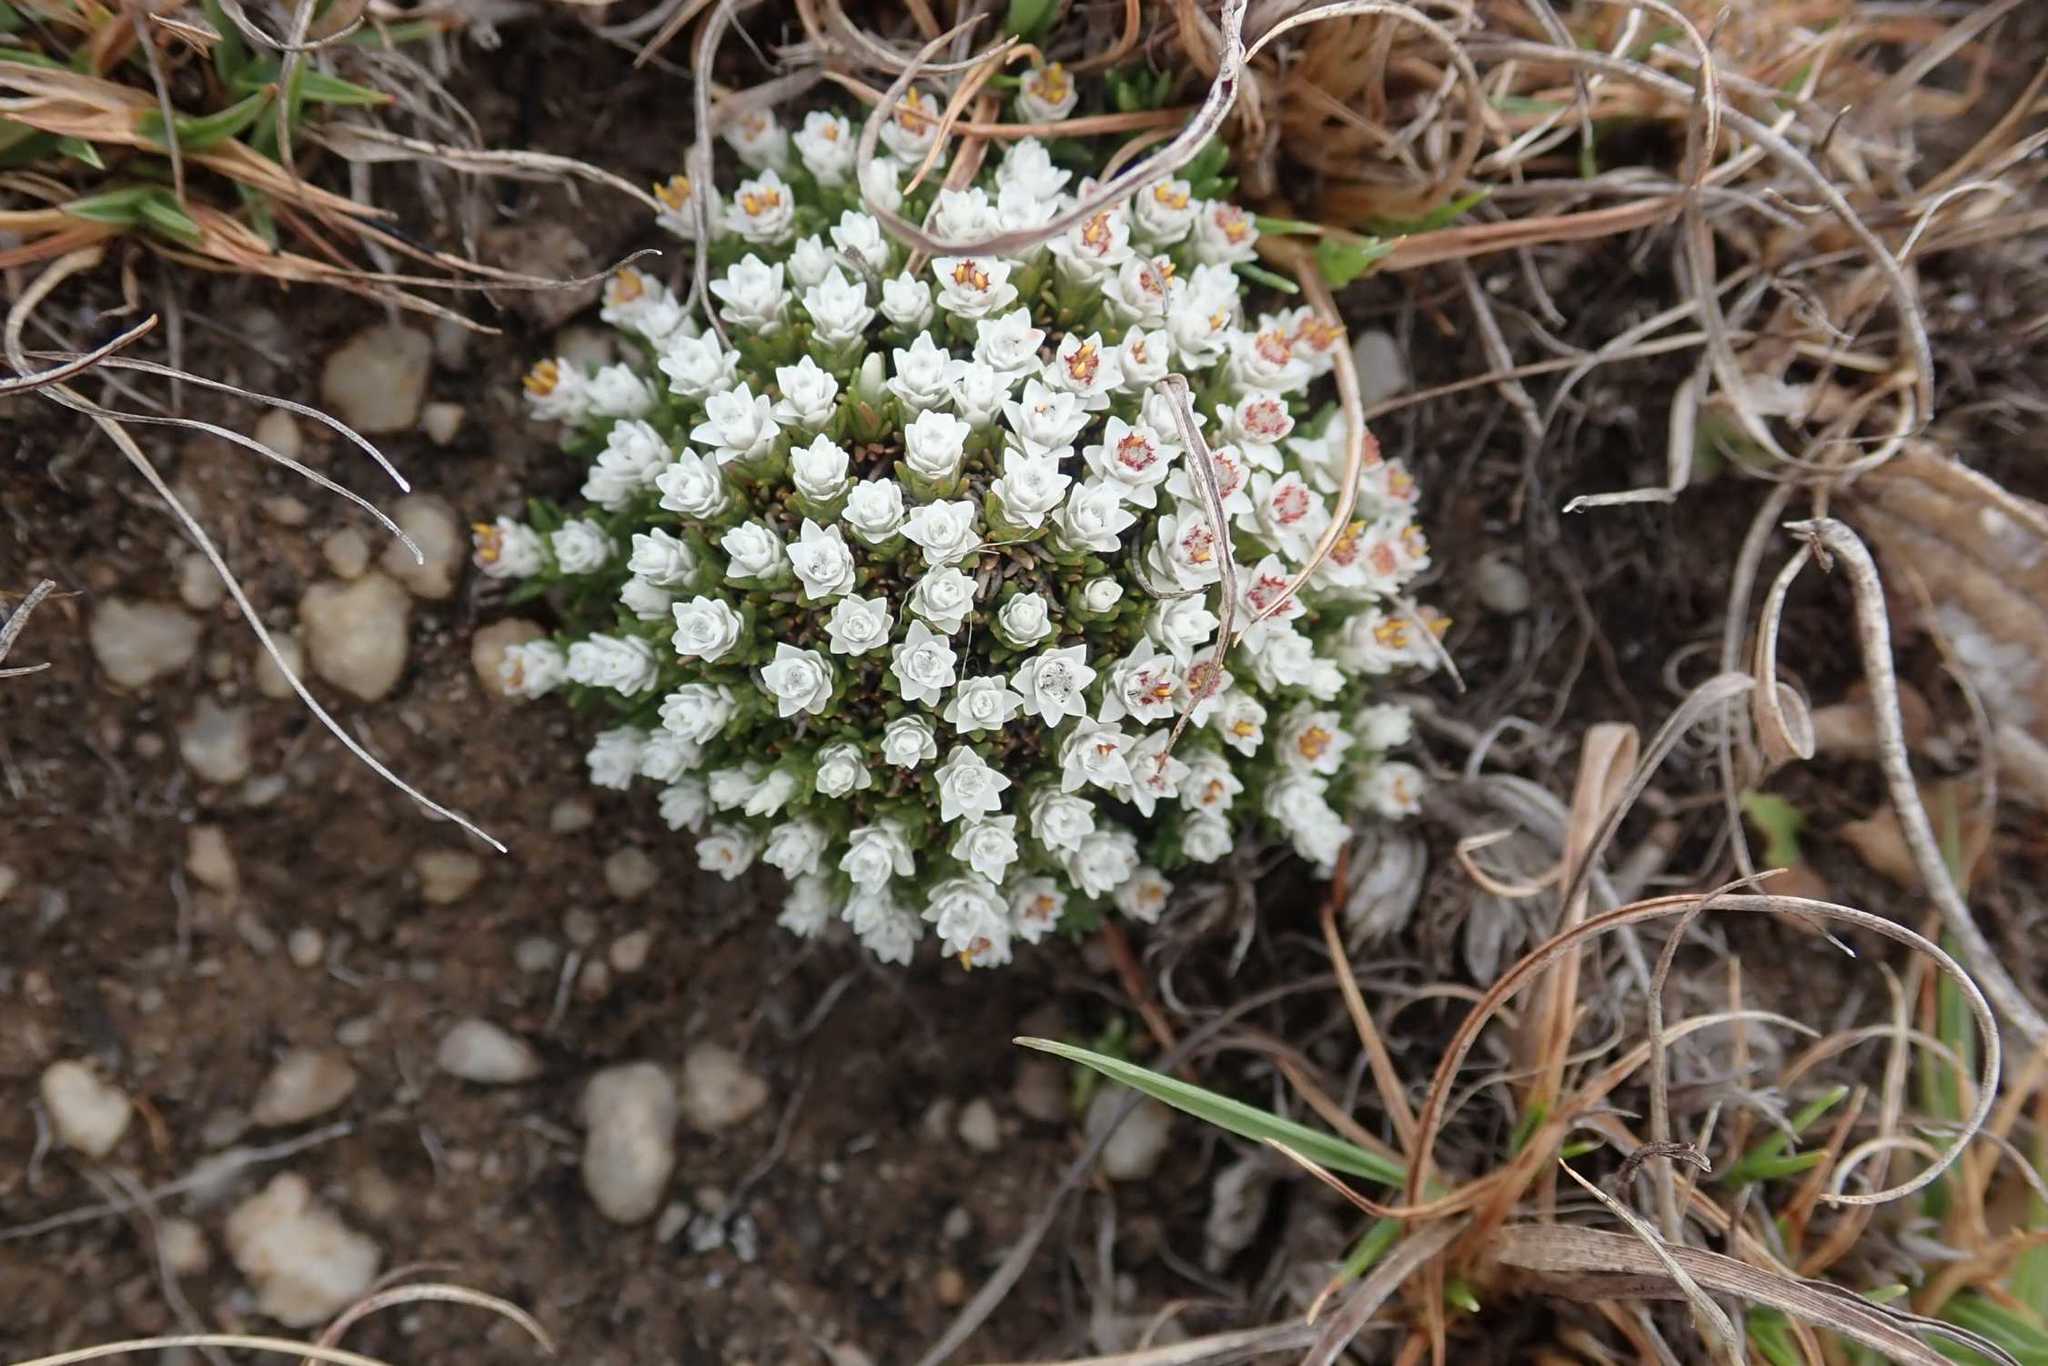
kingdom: Plantae
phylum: Tracheophyta
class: Magnoliopsida
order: Asterales
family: Asteraceae
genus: Helichrysum
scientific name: Helichrysum caespititium
